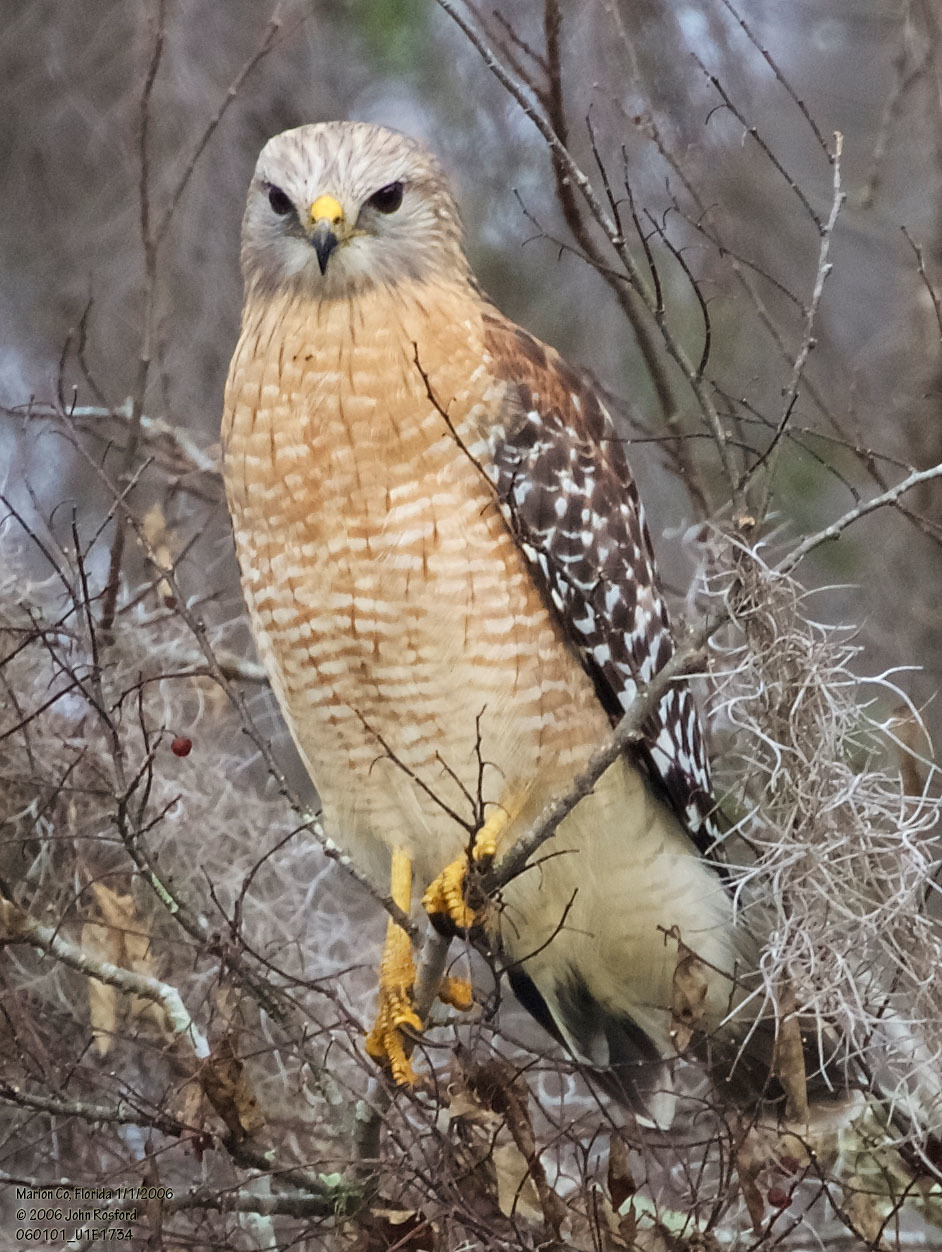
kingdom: Animalia
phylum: Chordata
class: Aves
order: Accipitriformes
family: Accipitridae
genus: Buteo
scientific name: Buteo lineatus
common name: Red-shouldered hawk
